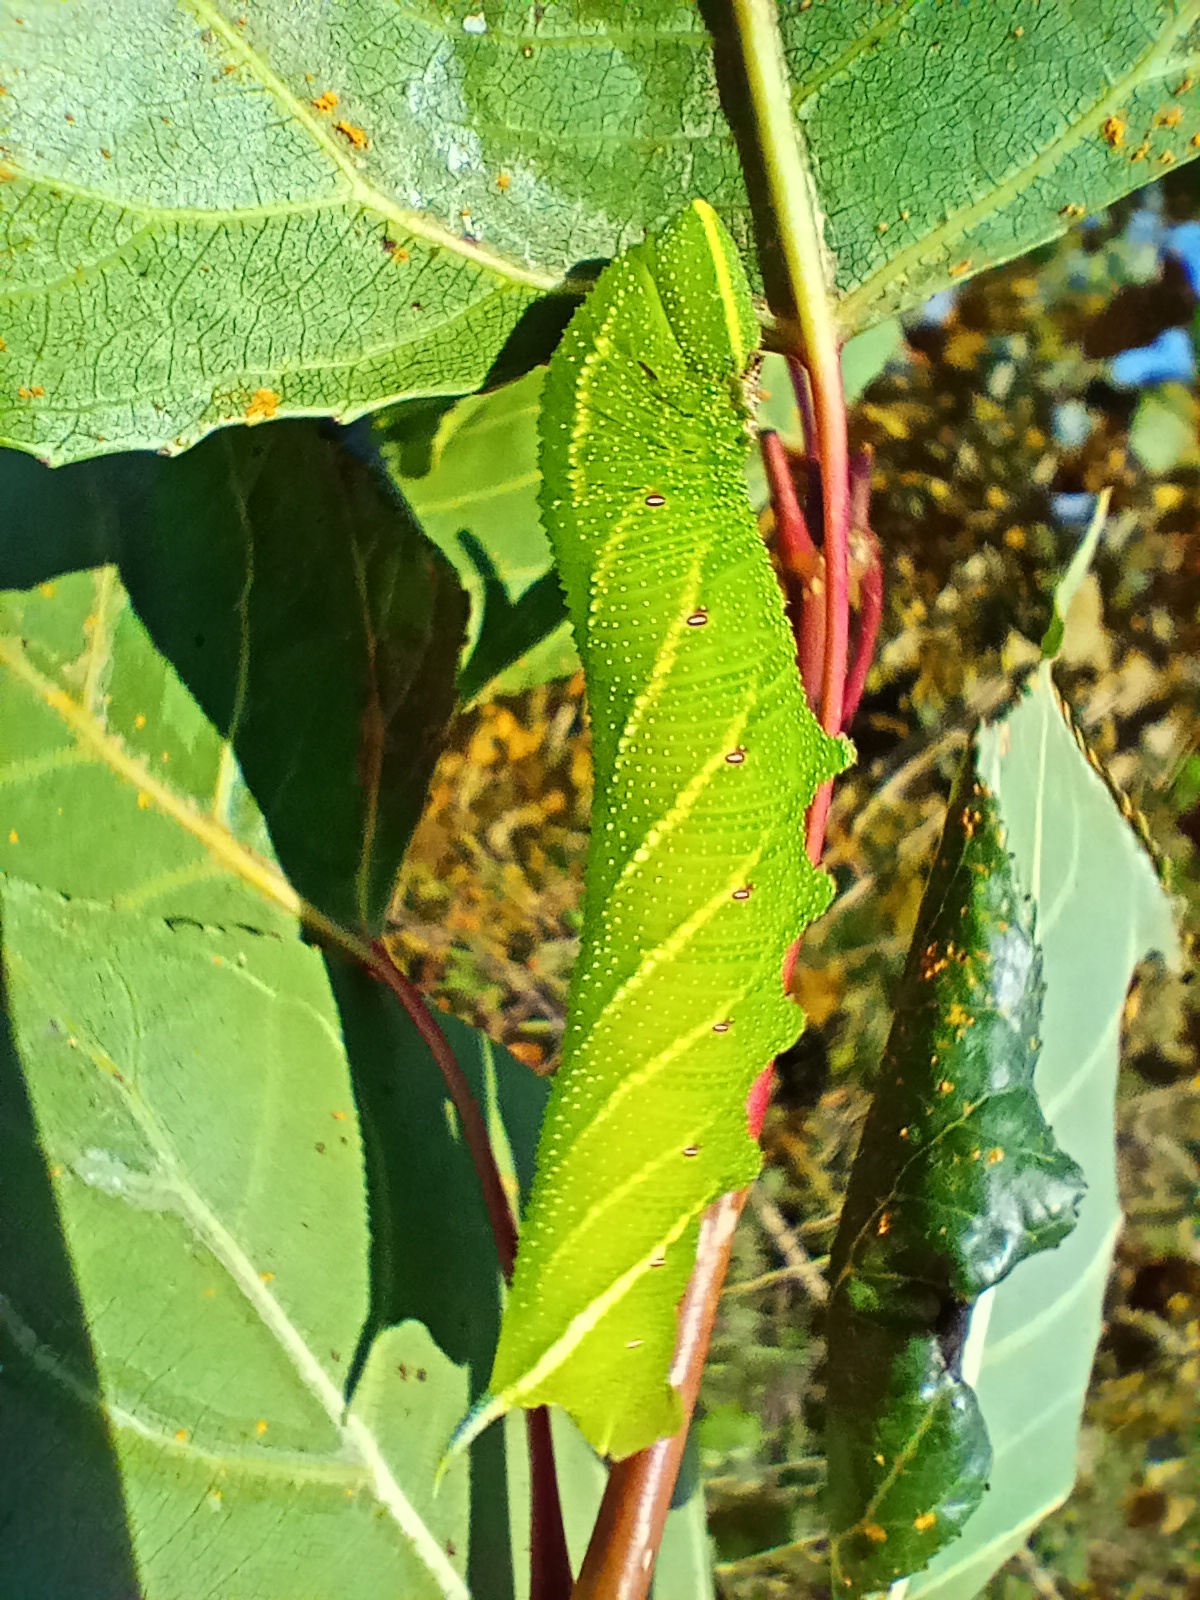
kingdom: Animalia
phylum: Arthropoda
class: Insecta
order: Lepidoptera
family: Sphingidae
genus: Smerinthus
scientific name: Smerinthus ocellata
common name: Eyed hawk-moth
